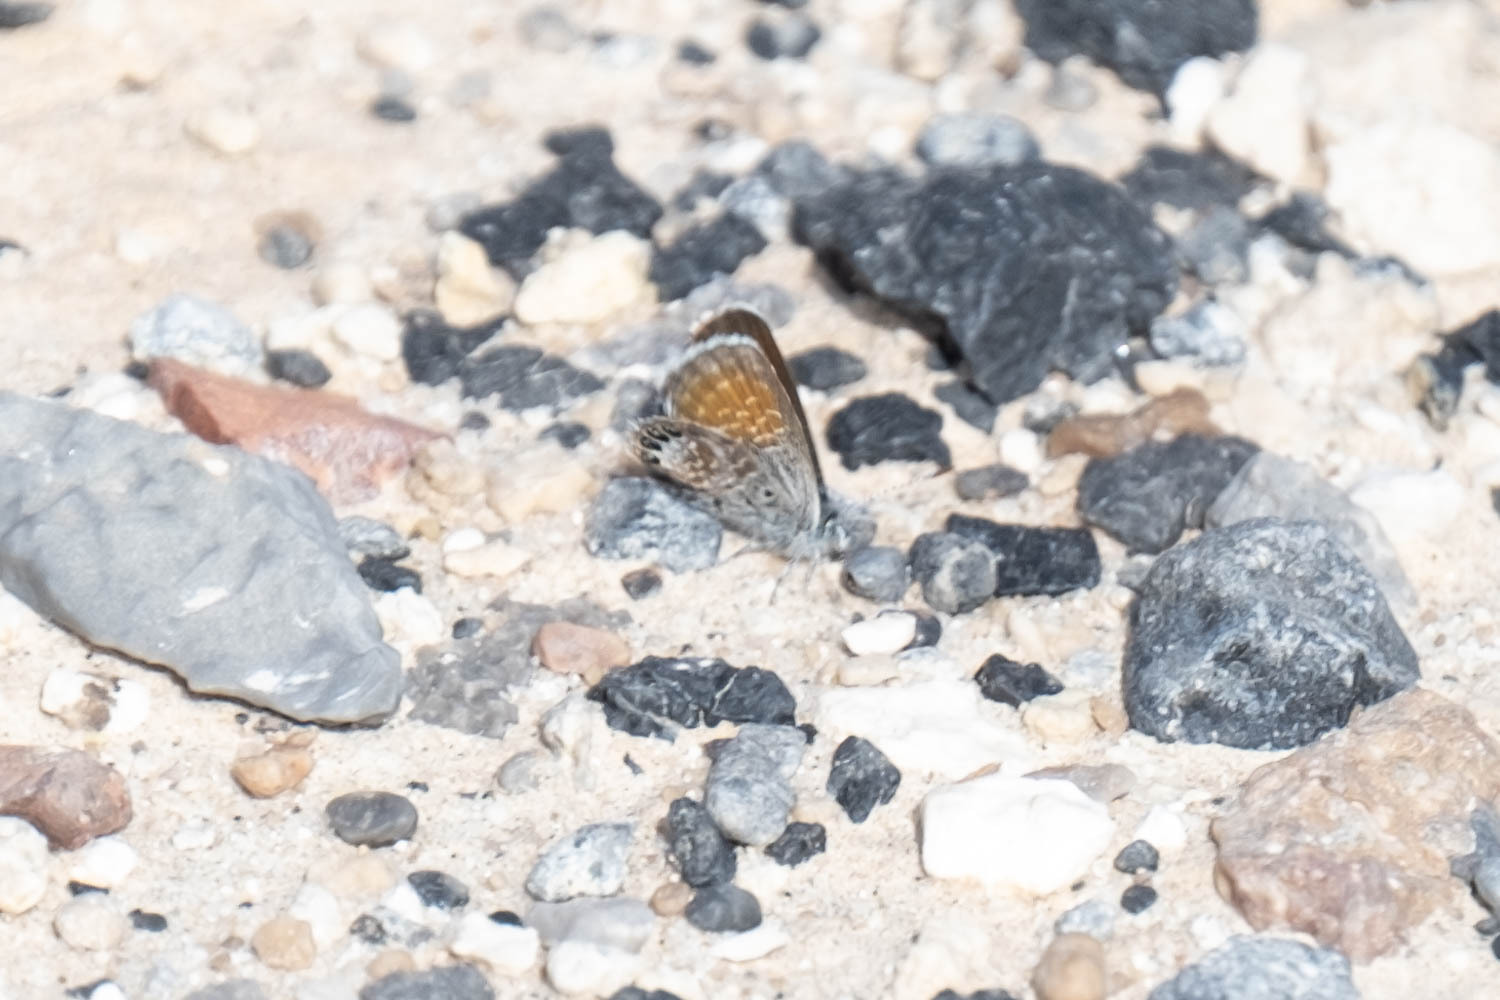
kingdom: Animalia
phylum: Arthropoda
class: Insecta
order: Lepidoptera
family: Lycaenidae
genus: Brephidium
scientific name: Brephidium exilis
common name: Pygmy blue
